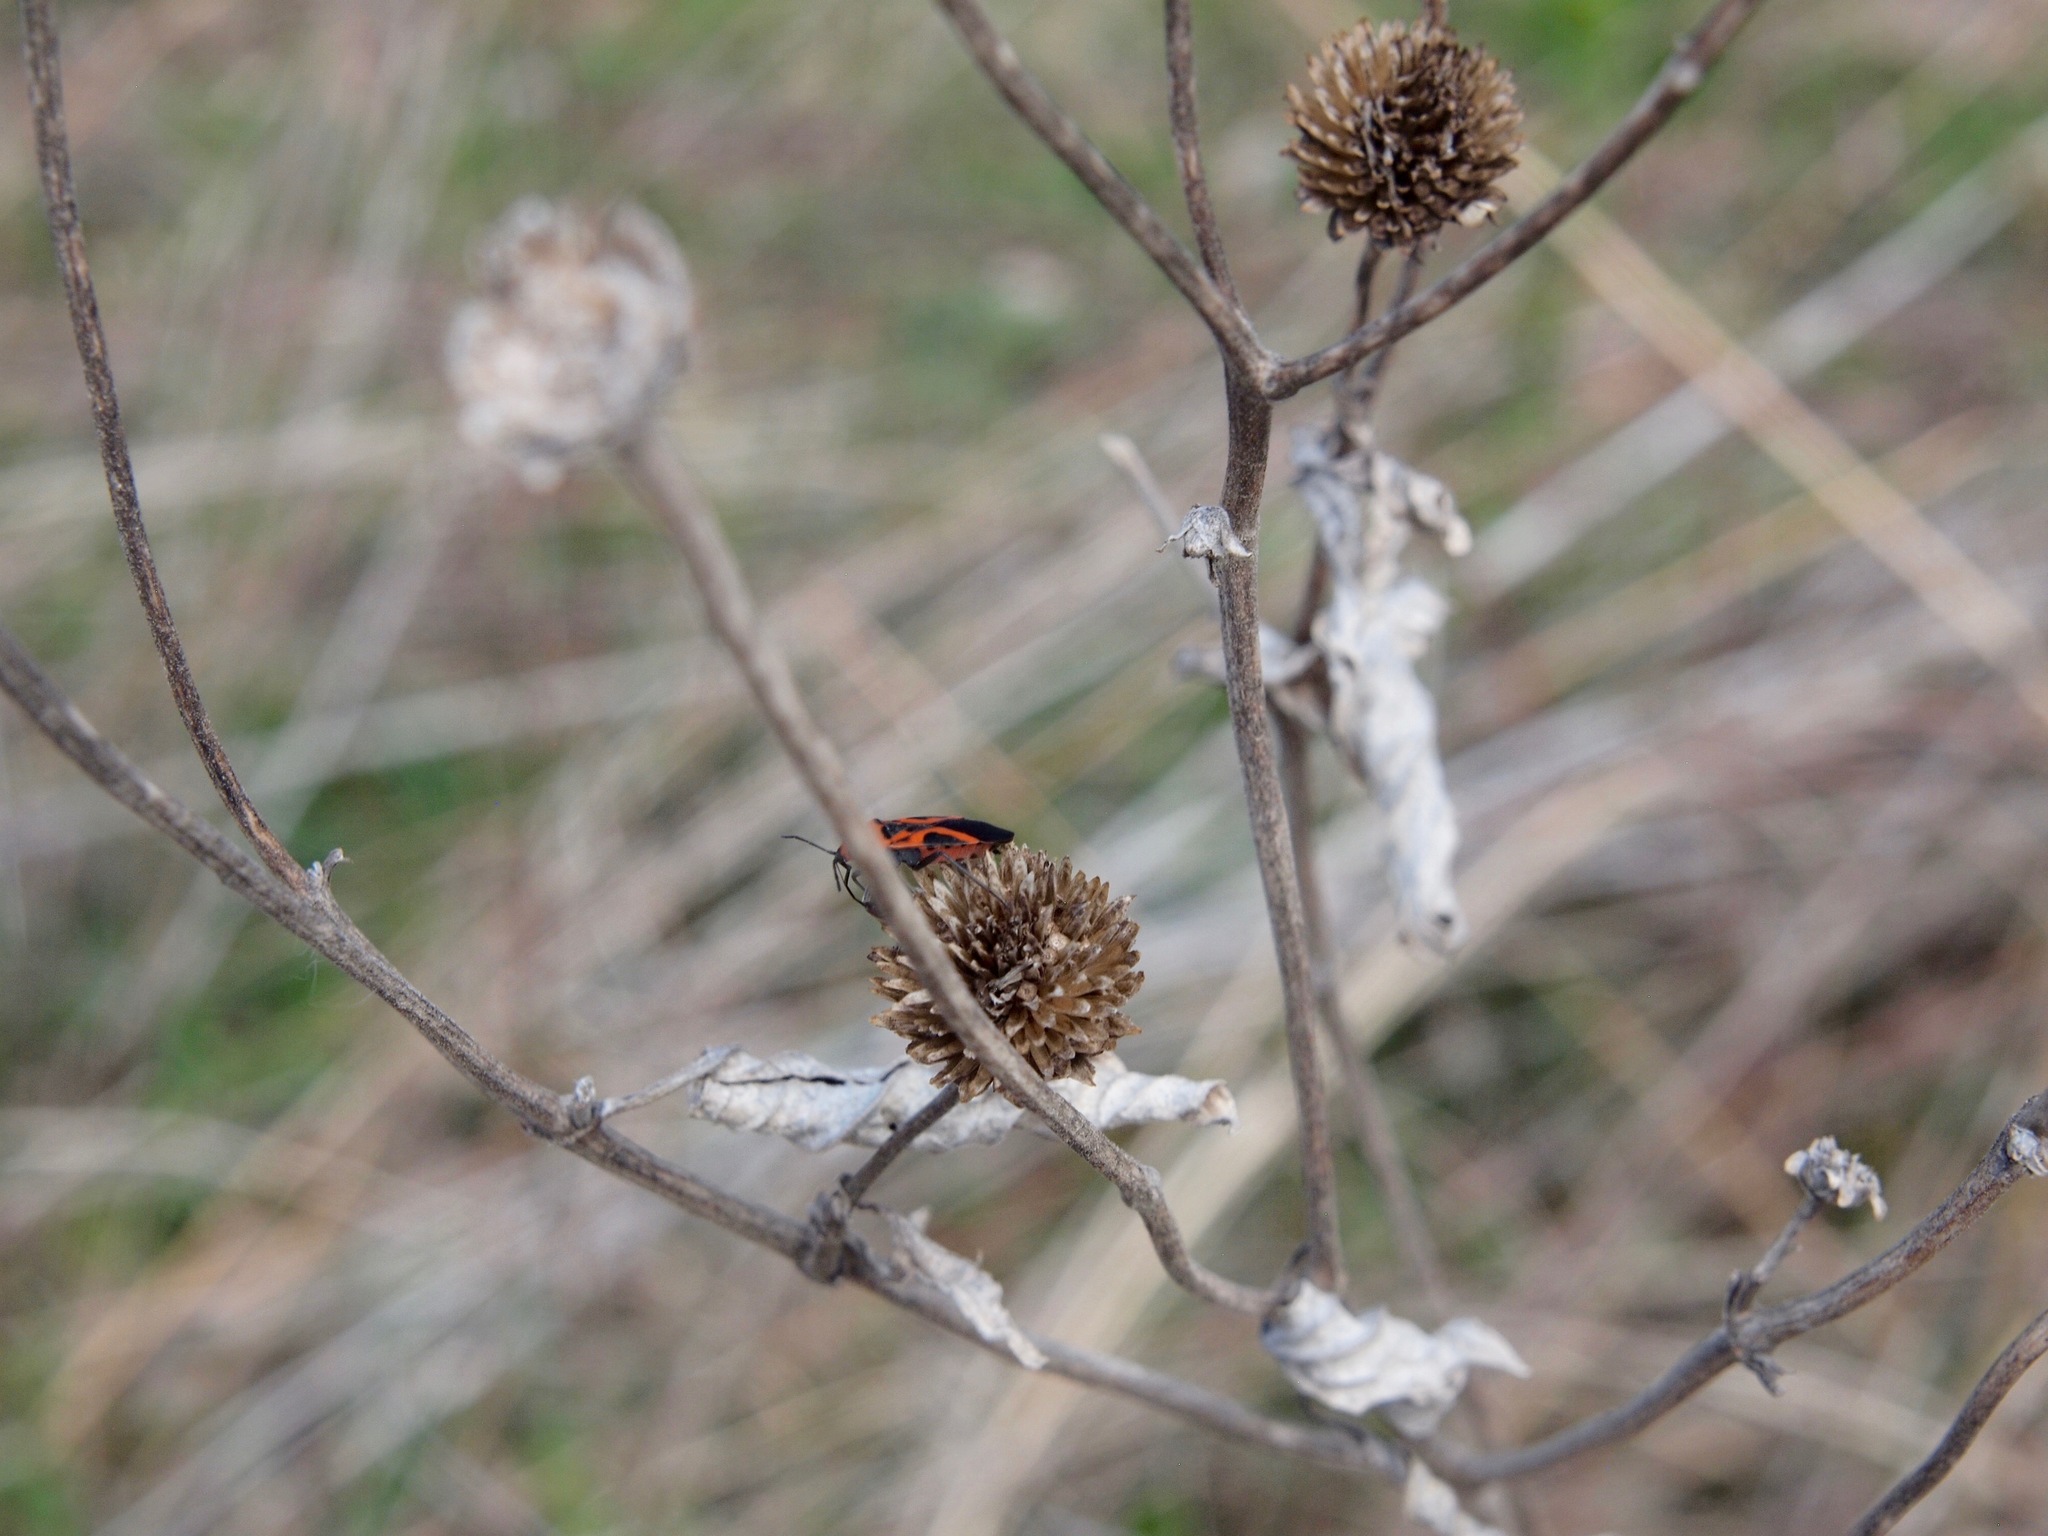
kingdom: Plantae
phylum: Tracheophyta
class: Magnoliopsida
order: Asterales
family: Asteraceae
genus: Echinacea
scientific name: Echinacea purpurea
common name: Broad-leaved purple coneflower
